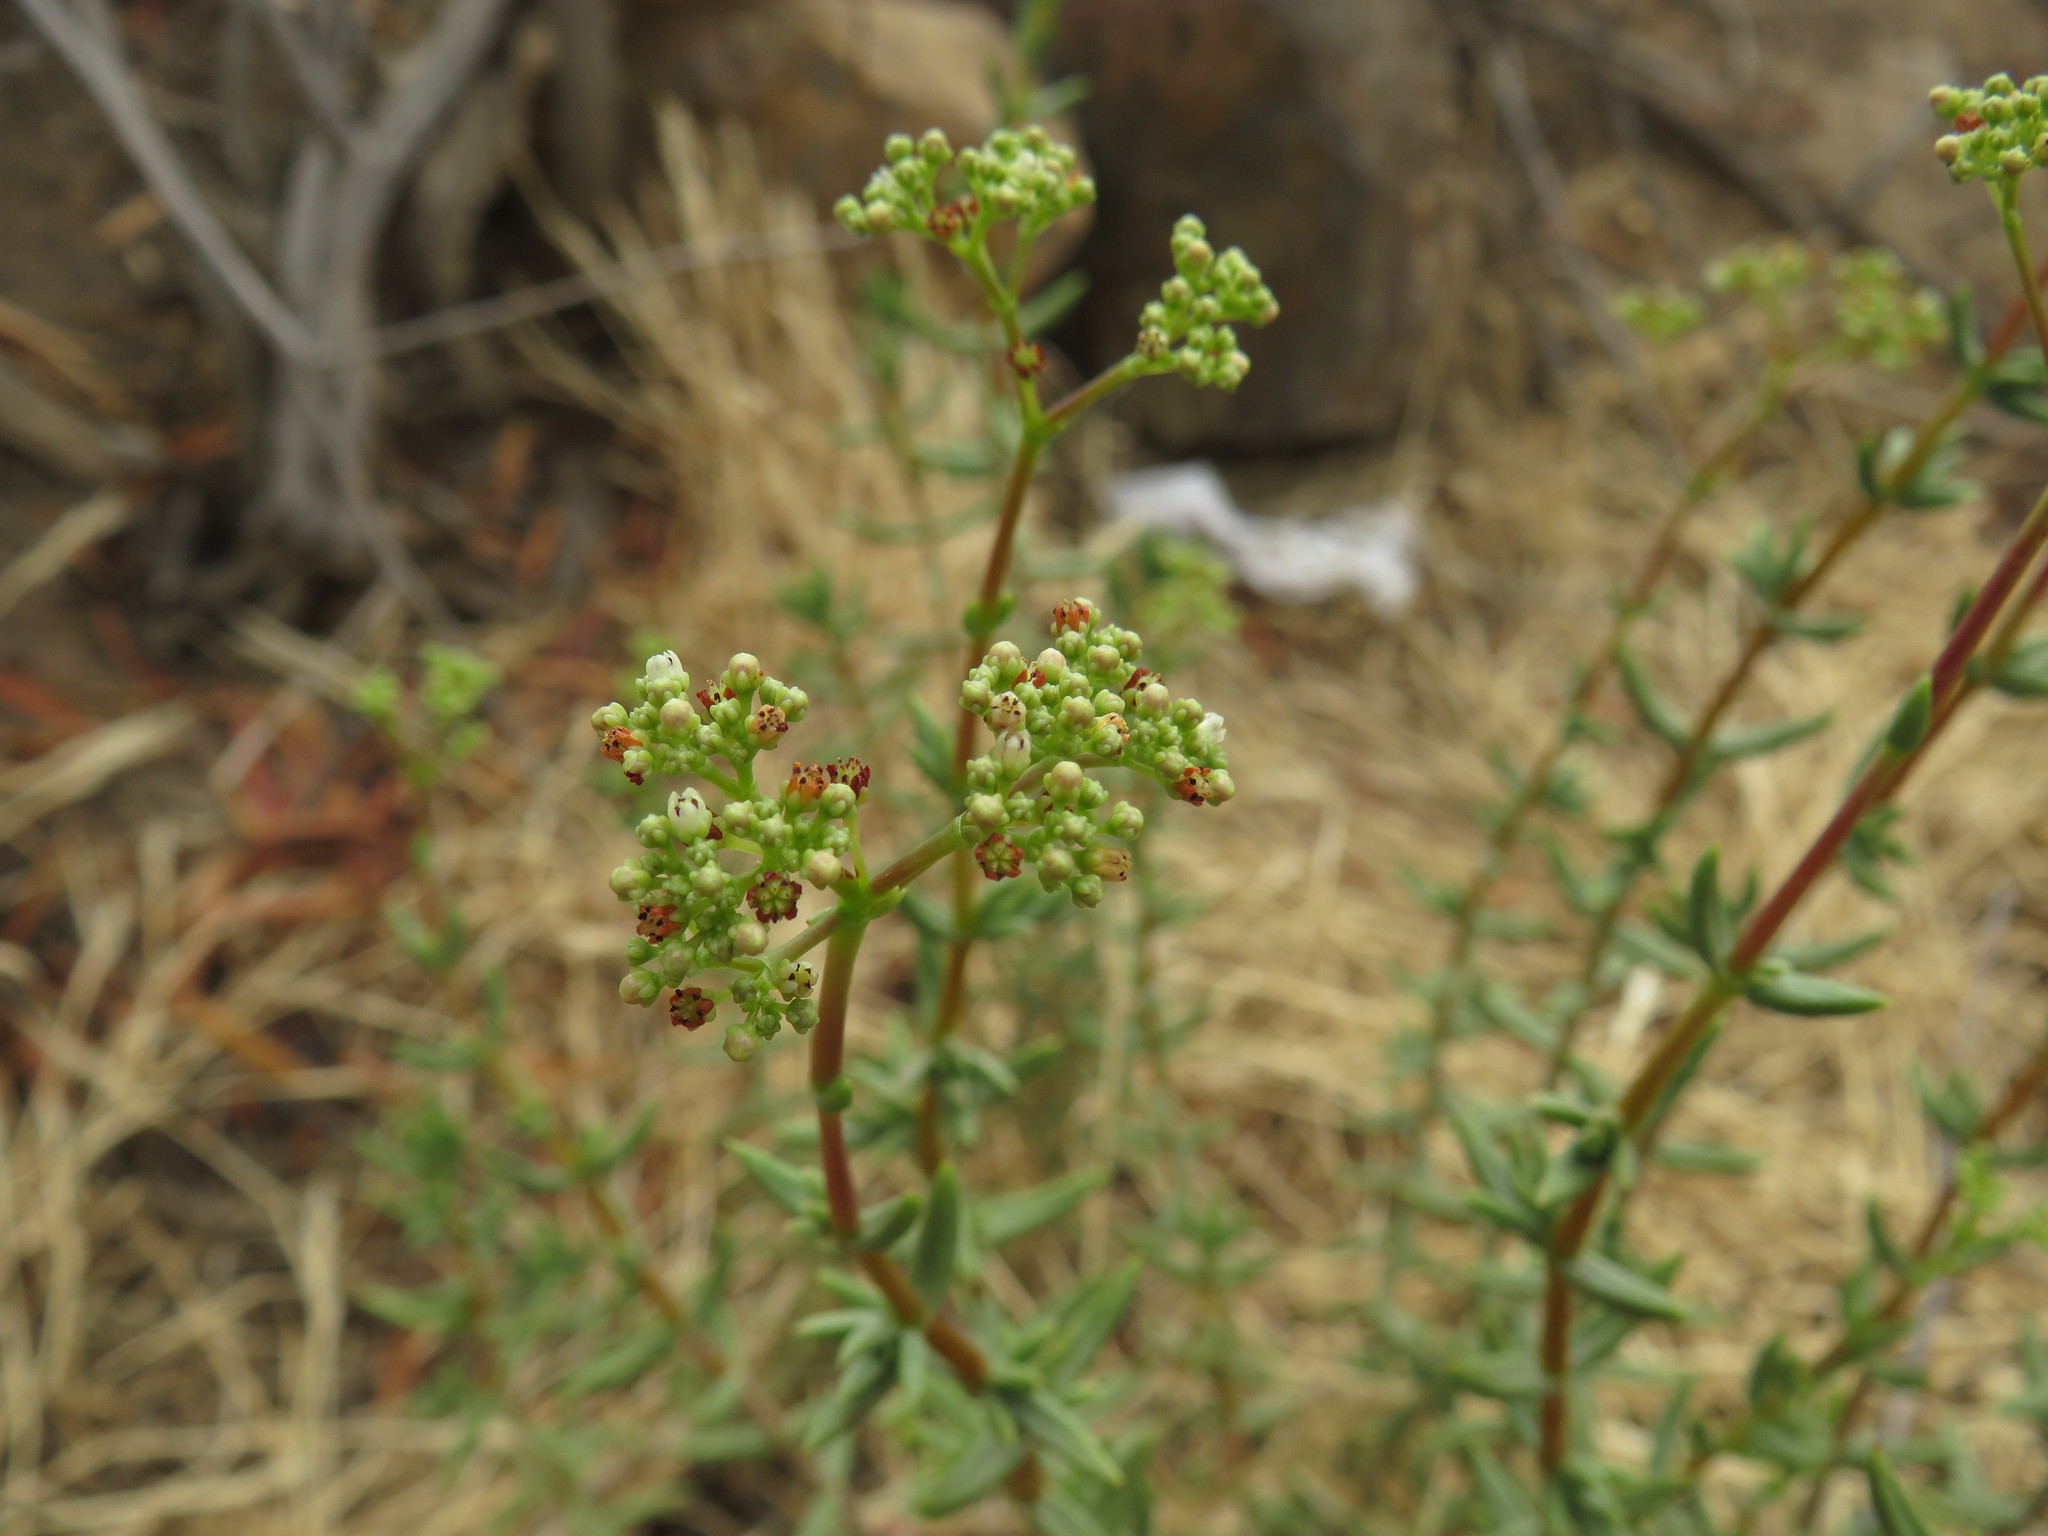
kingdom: Plantae
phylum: Tracheophyta
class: Magnoliopsida
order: Saxifragales
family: Crassulaceae
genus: Crassula
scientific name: Crassula tetragona
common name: Pygmyweed
